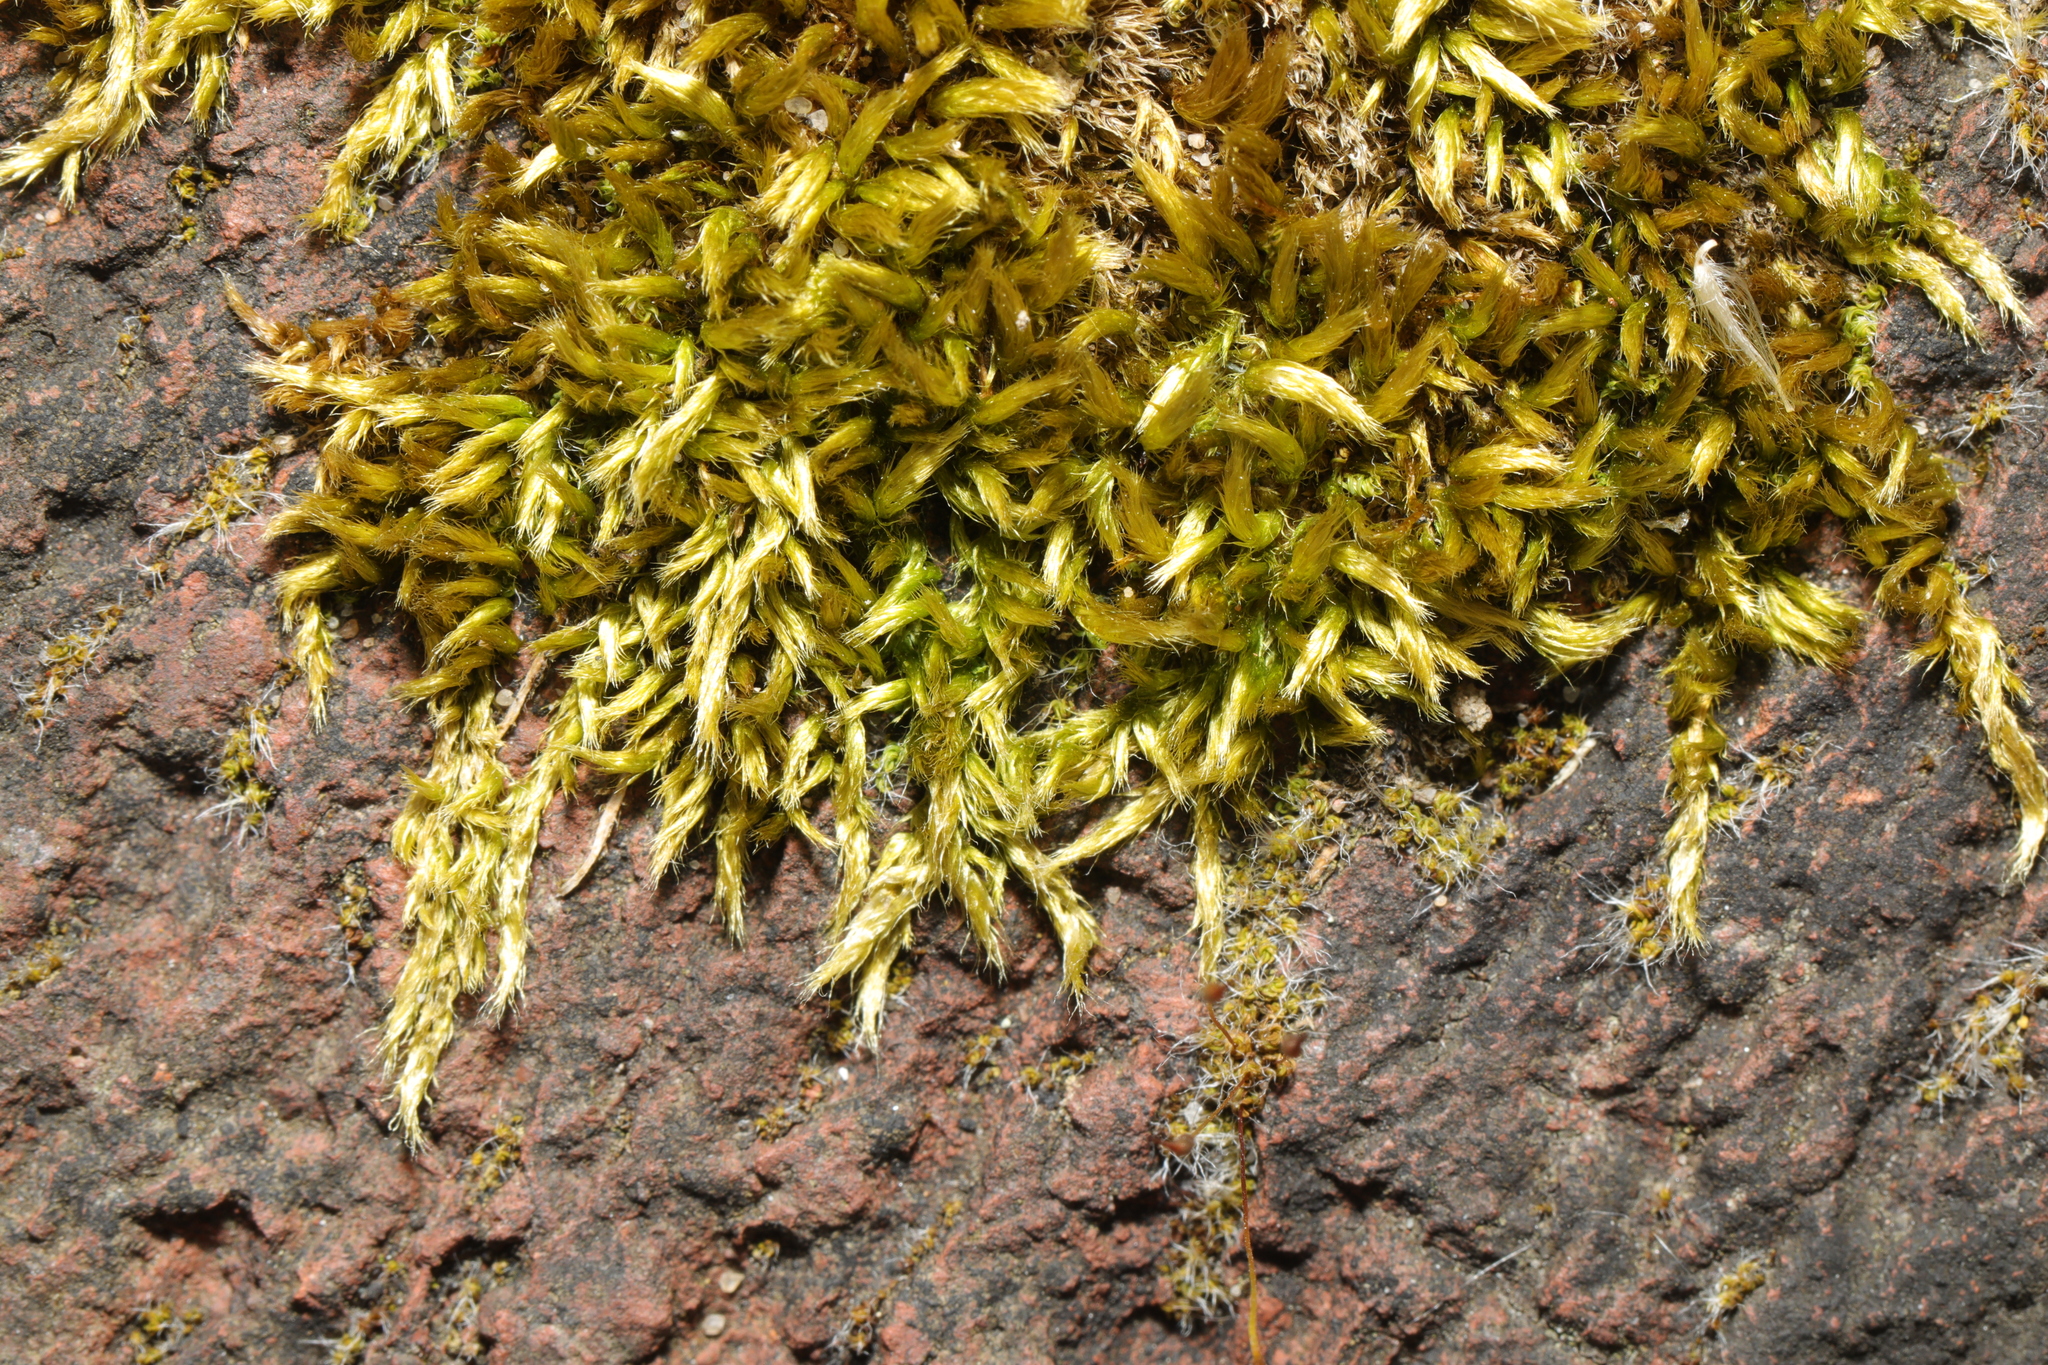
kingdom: Plantae
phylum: Bryophyta
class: Bryopsida
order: Hypnales
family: Brachytheciaceae
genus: Homalothecium
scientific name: Homalothecium sericeum
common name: Silky wall feather-moss
